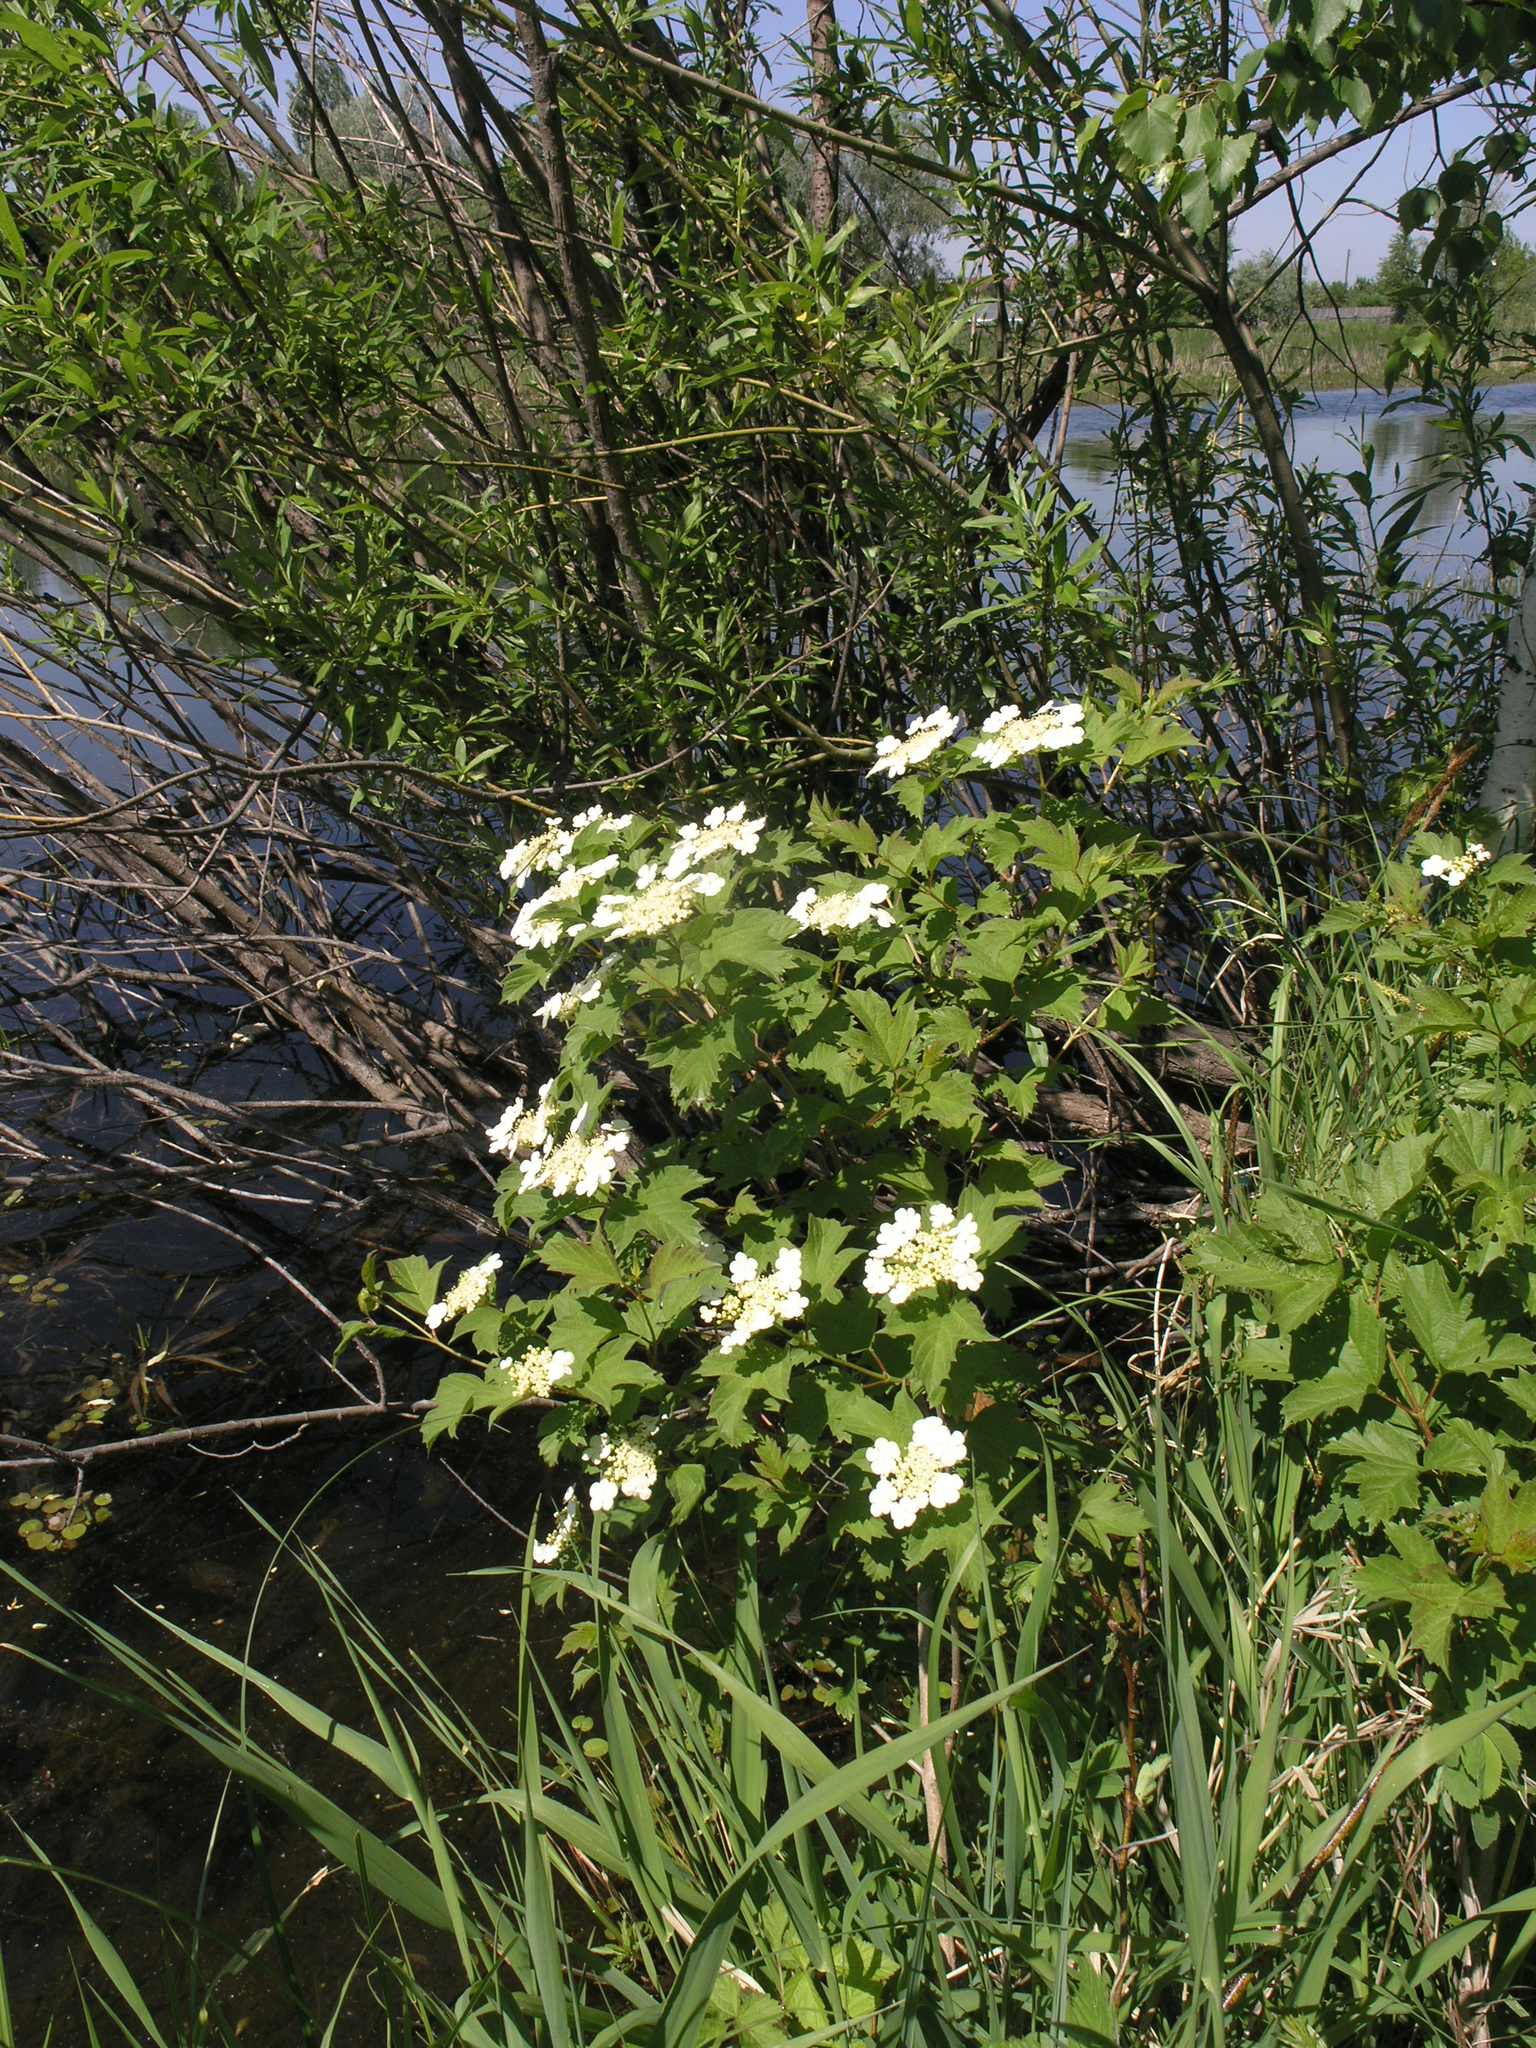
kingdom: Plantae
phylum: Tracheophyta
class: Magnoliopsida
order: Dipsacales
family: Viburnaceae
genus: Viburnum
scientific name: Viburnum opulus
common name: Guelder-rose
